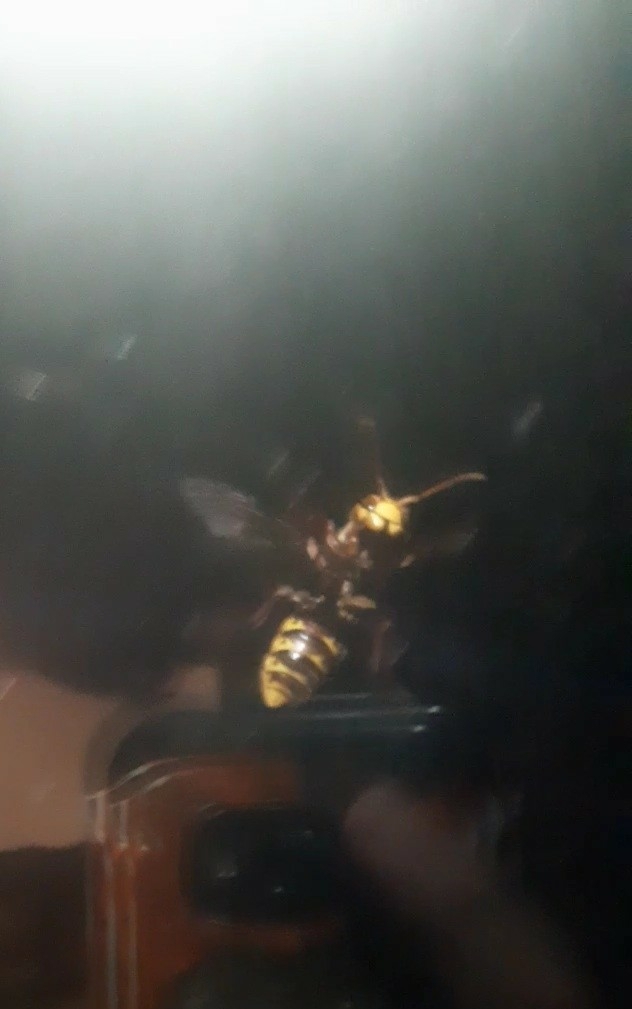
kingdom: Animalia
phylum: Arthropoda
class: Insecta
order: Hymenoptera
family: Vespidae
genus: Vespa
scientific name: Vespa crabro
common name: Hornet
